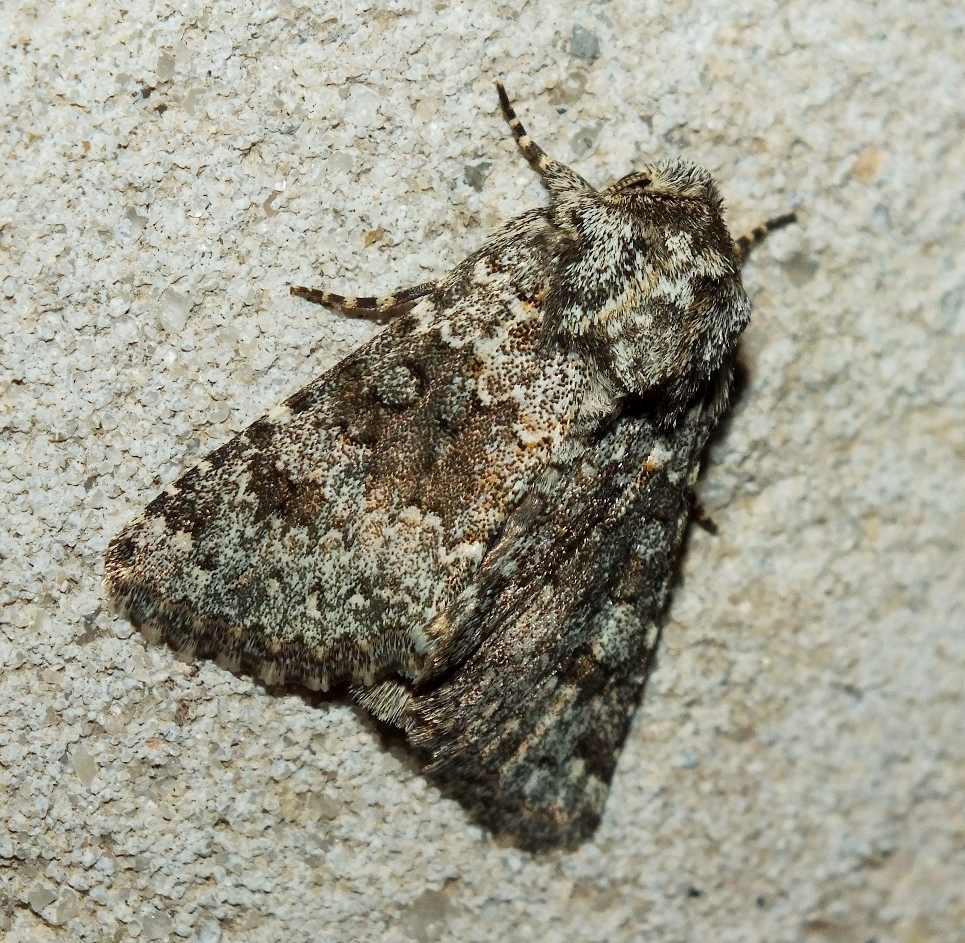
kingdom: Animalia
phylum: Arthropoda
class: Insecta
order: Lepidoptera
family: Noctuidae
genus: Hecatera
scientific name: Hecatera dysodea
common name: Small ranunculus
